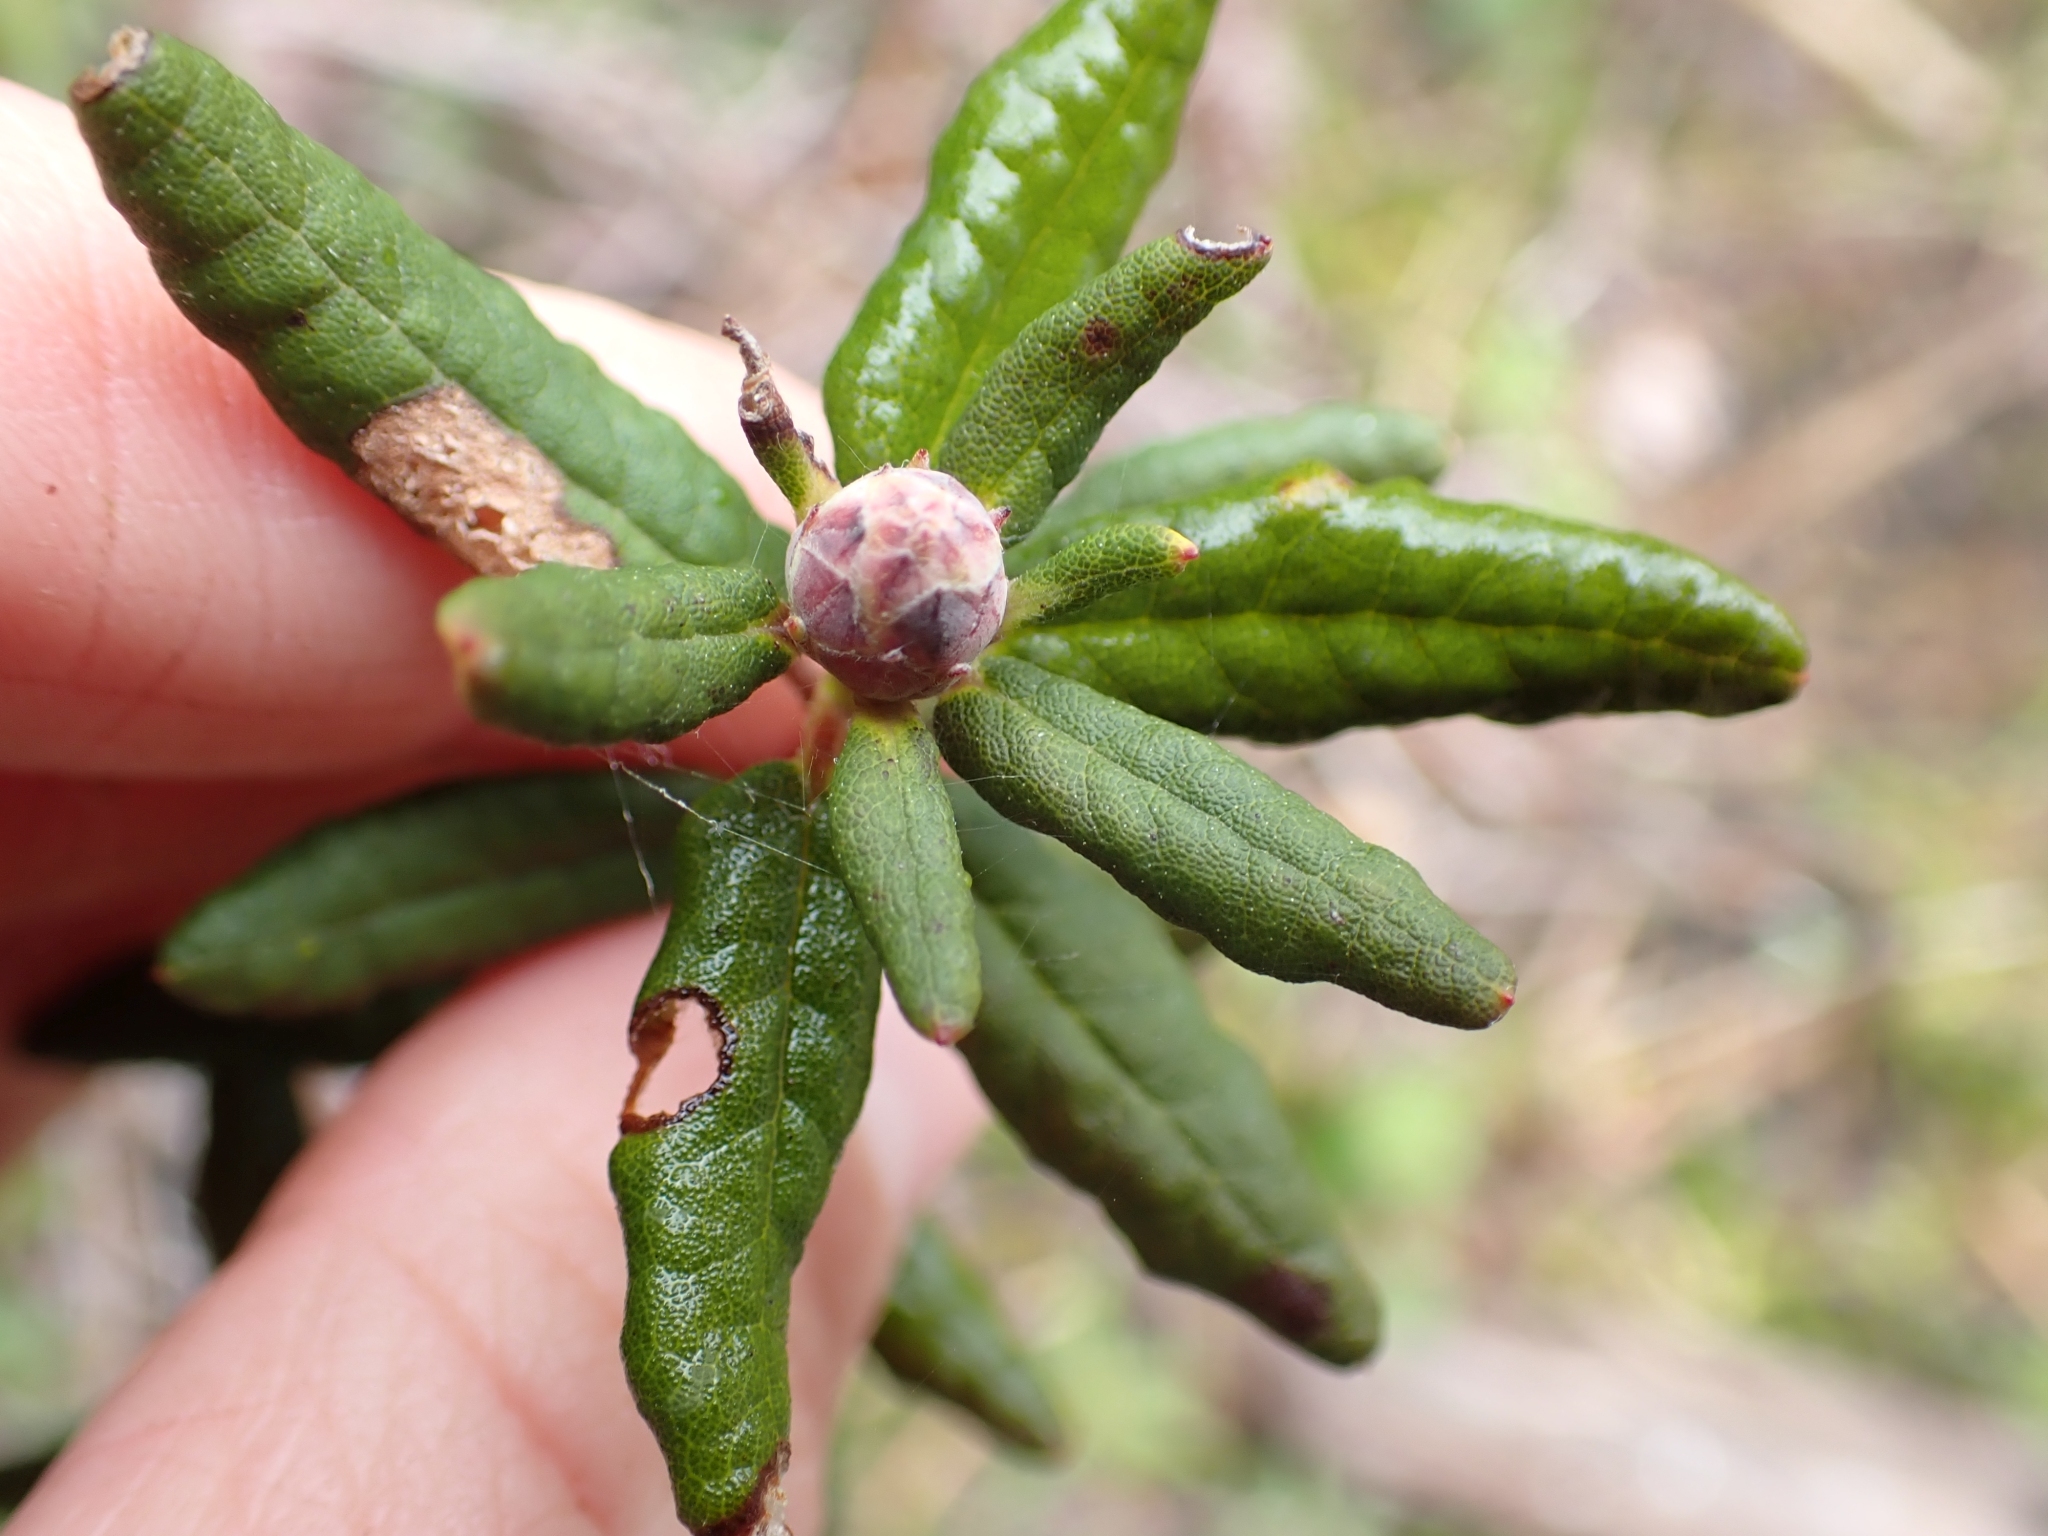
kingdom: Plantae
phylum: Tracheophyta
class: Magnoliopsida
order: Ericales
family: Ericaceae
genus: Rhododendron
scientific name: Rhododendron groenlandicum
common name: Bog labrador tea
